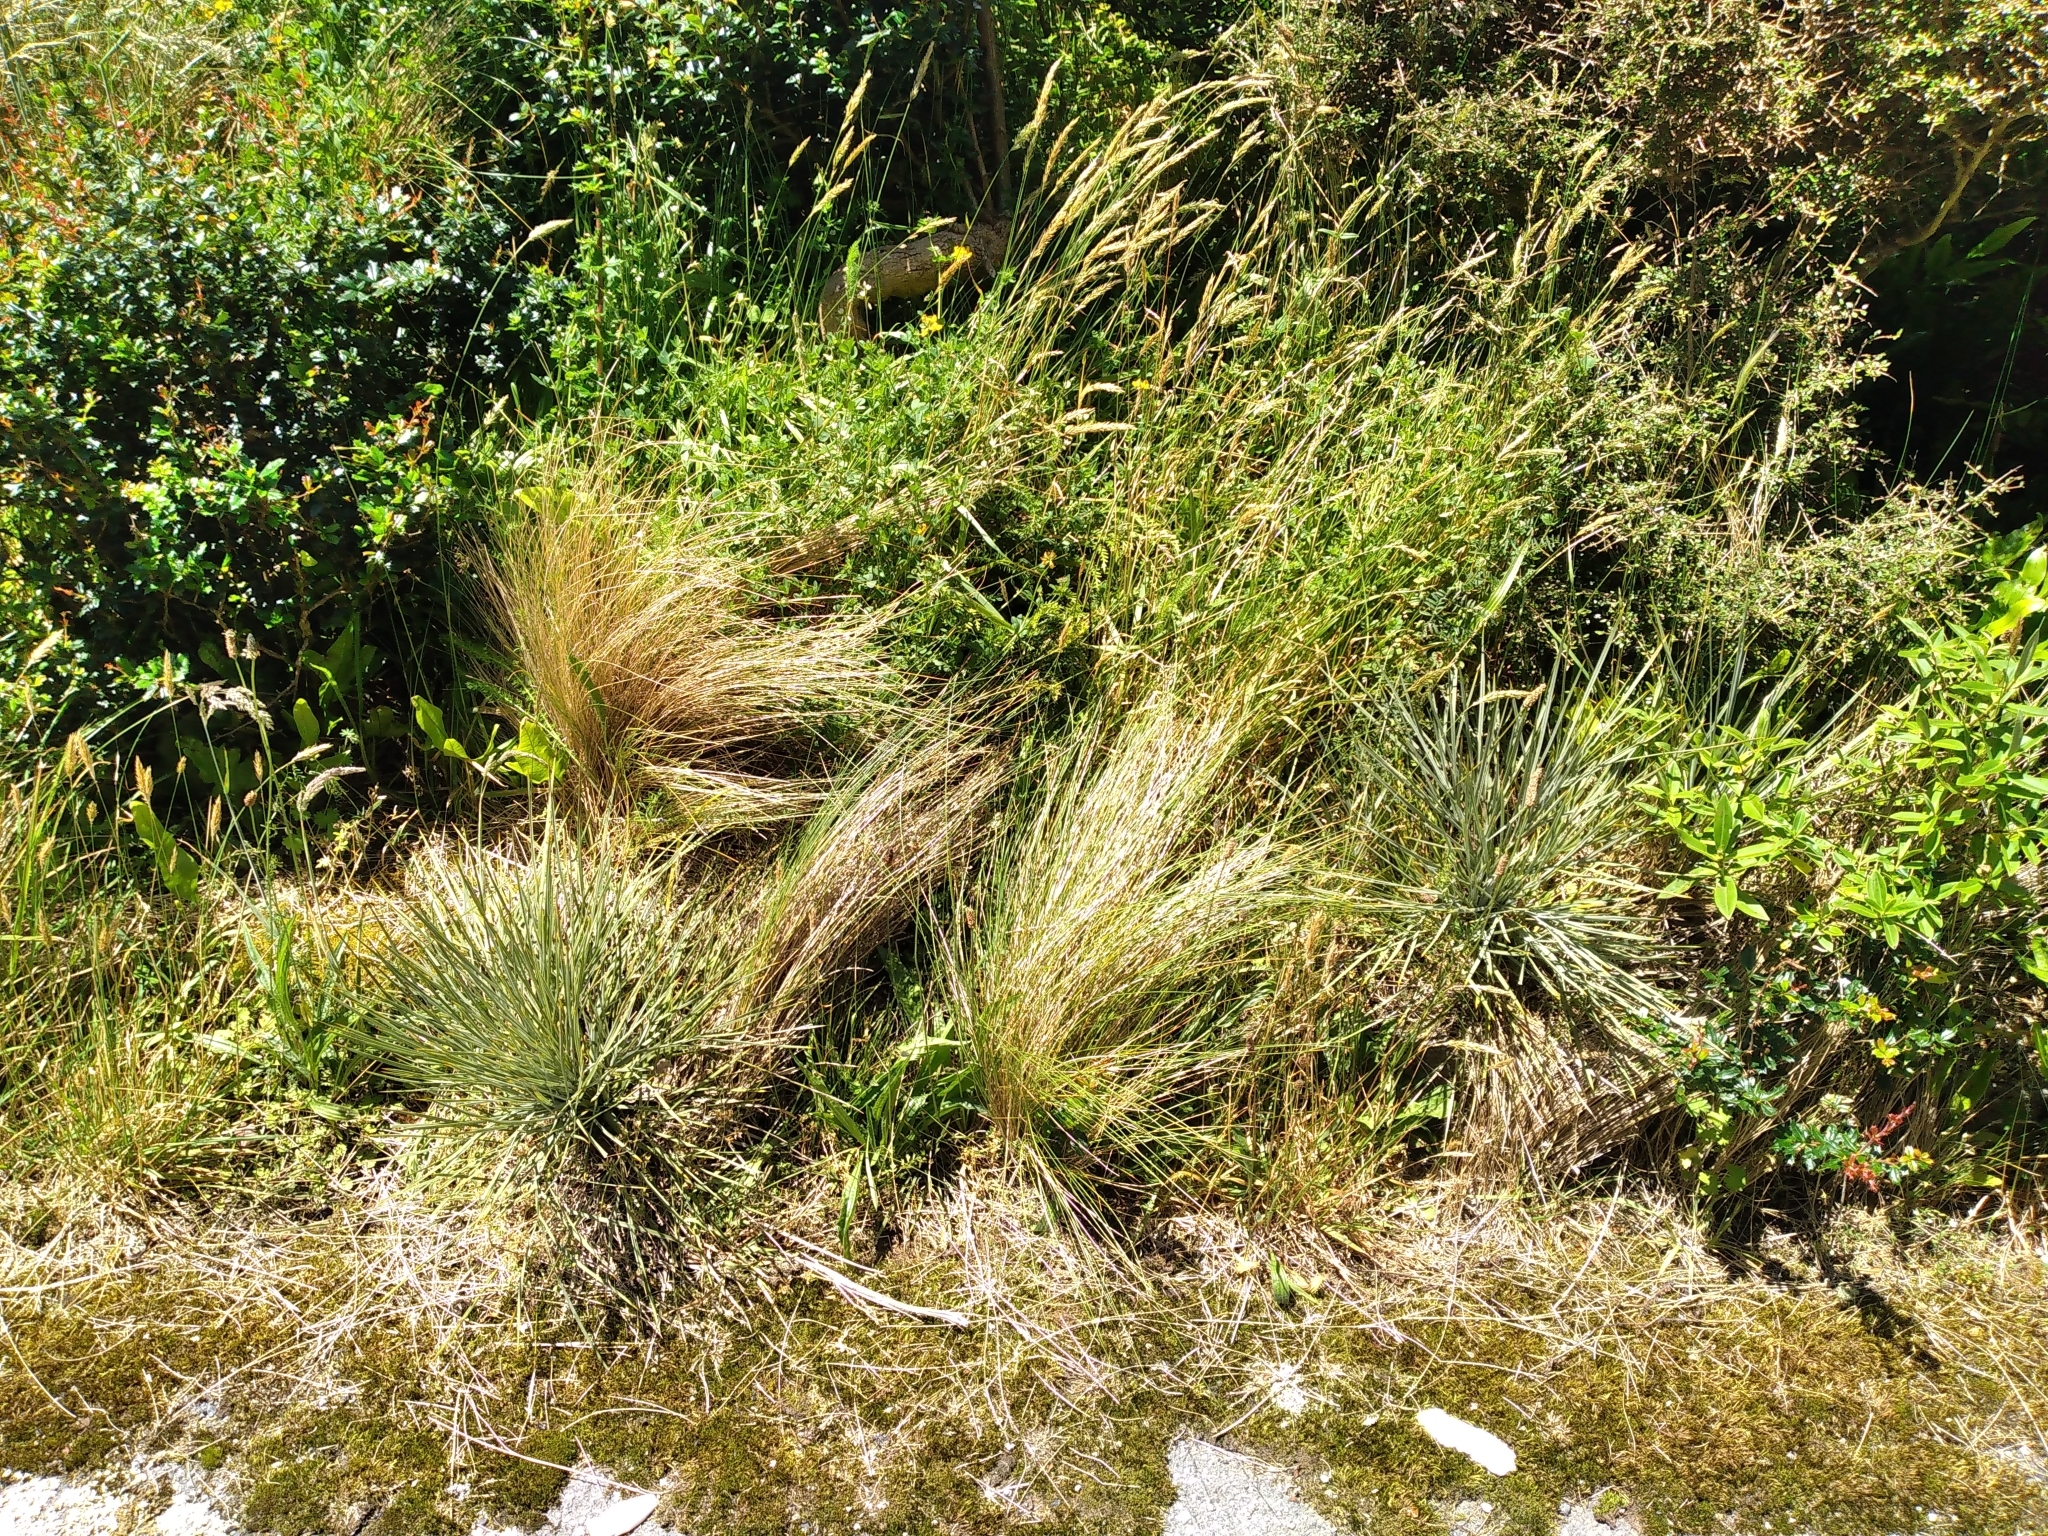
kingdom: Plantae
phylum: Tracheophyta
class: Magnoliopsida
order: Apiales
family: Apiaceae
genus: Aciphylla
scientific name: Aciphylla squarrosa
